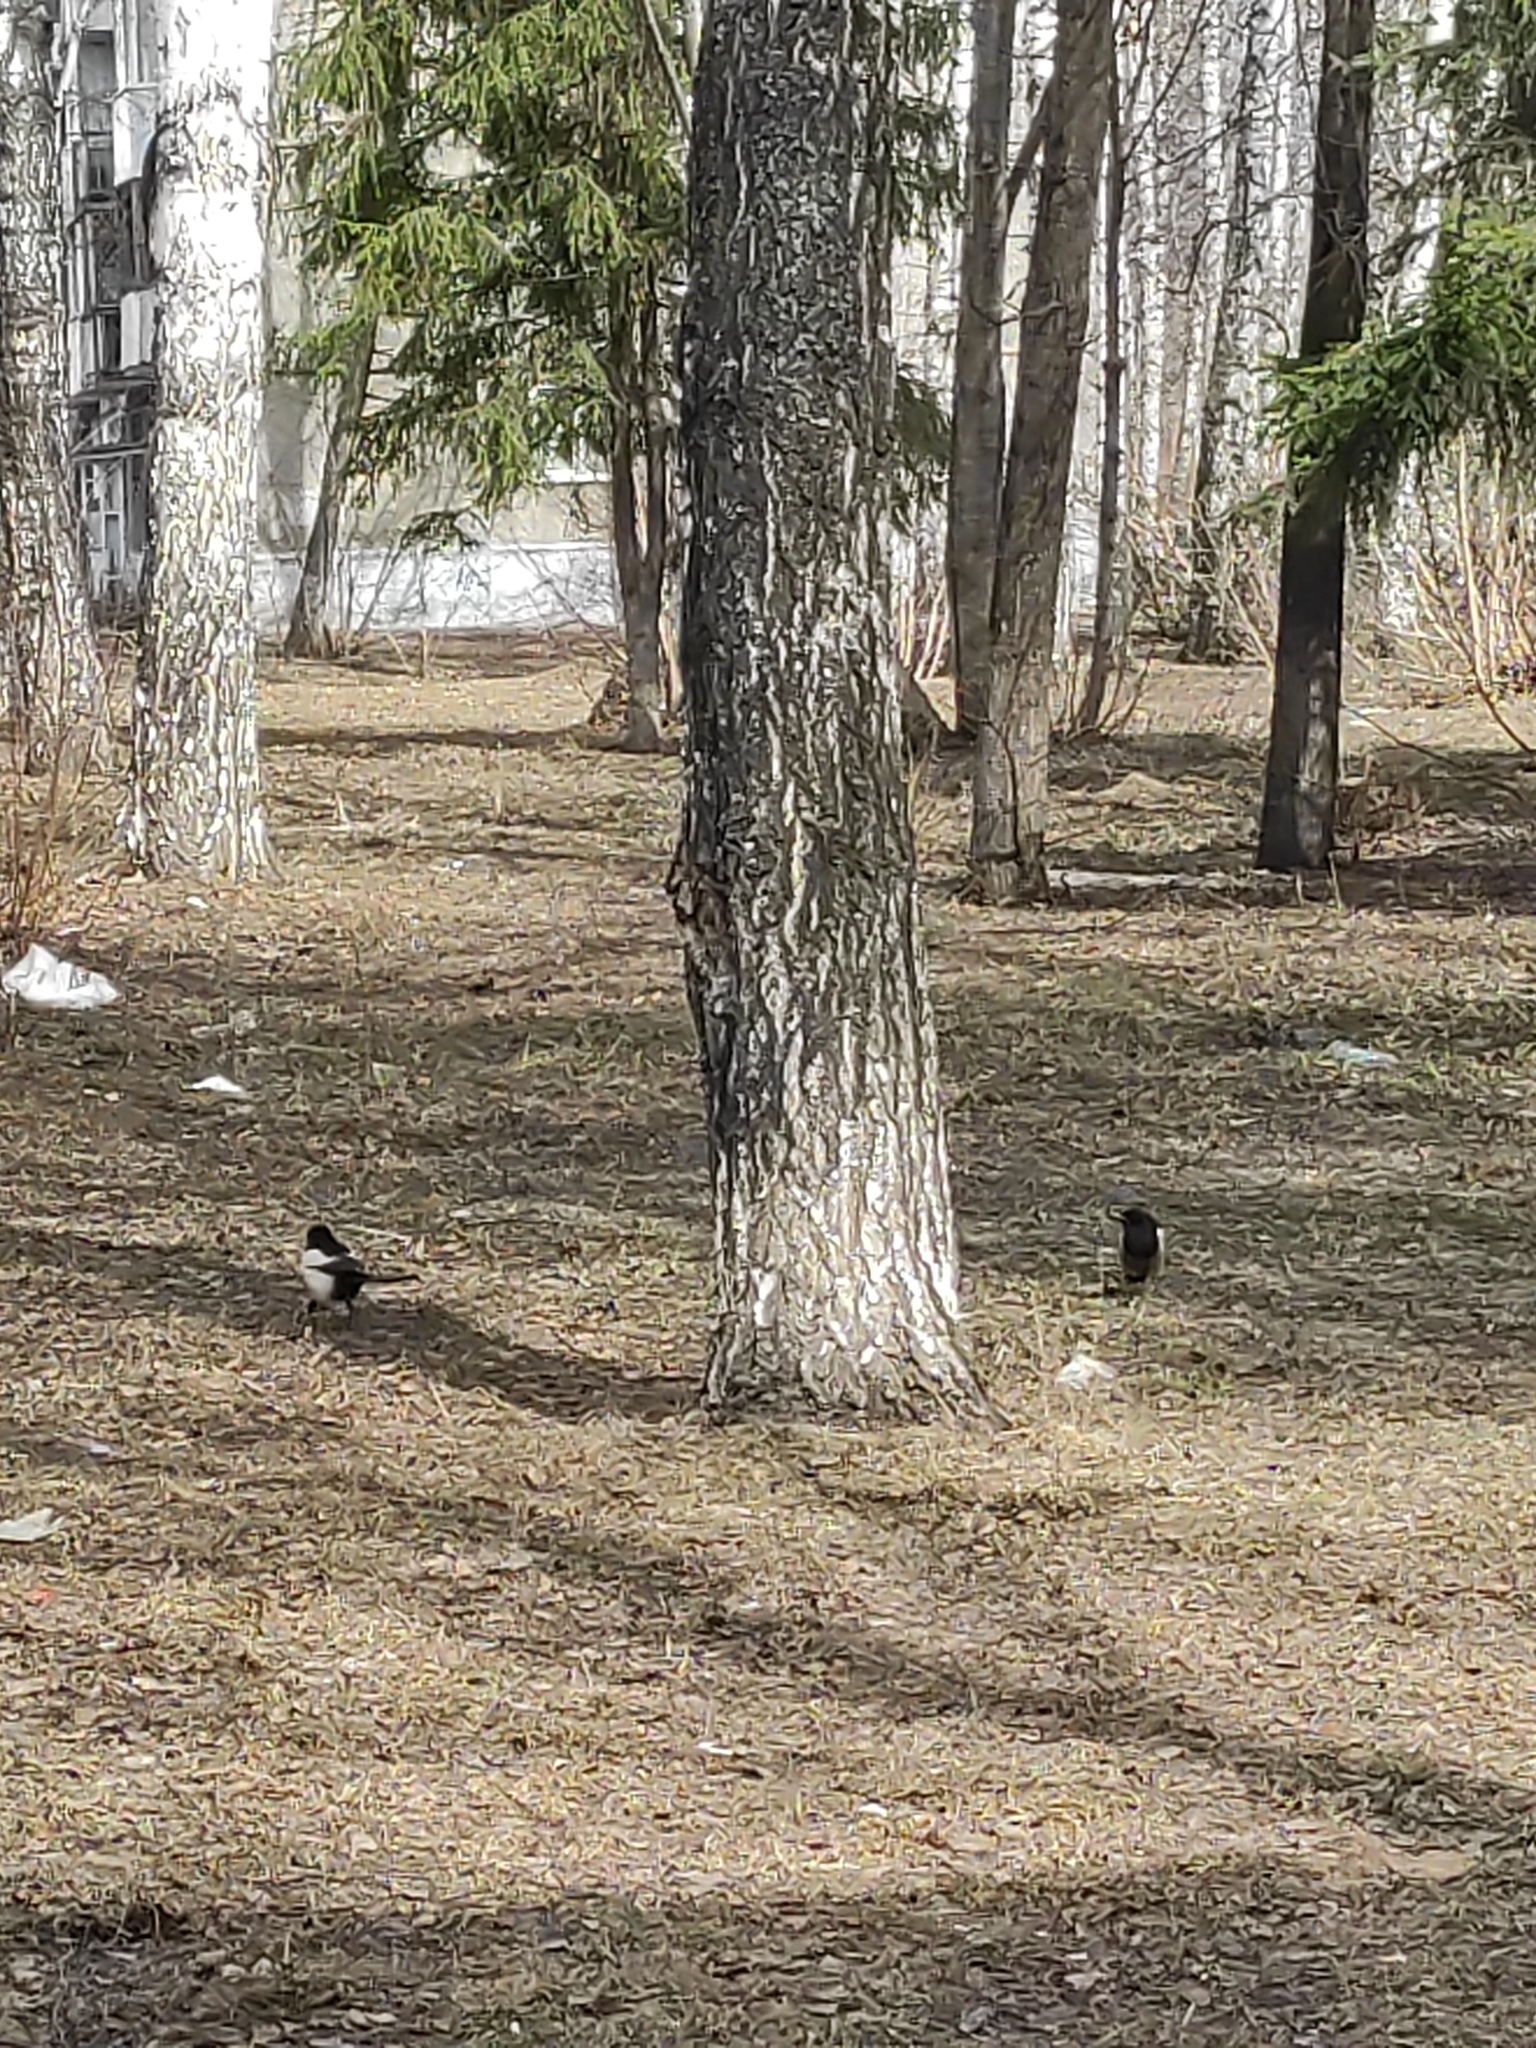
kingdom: Animalia
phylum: Chordata
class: Aves
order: Passeriformes
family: Corvidae
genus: Pica
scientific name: Pica pica
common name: Eurasian magpie
